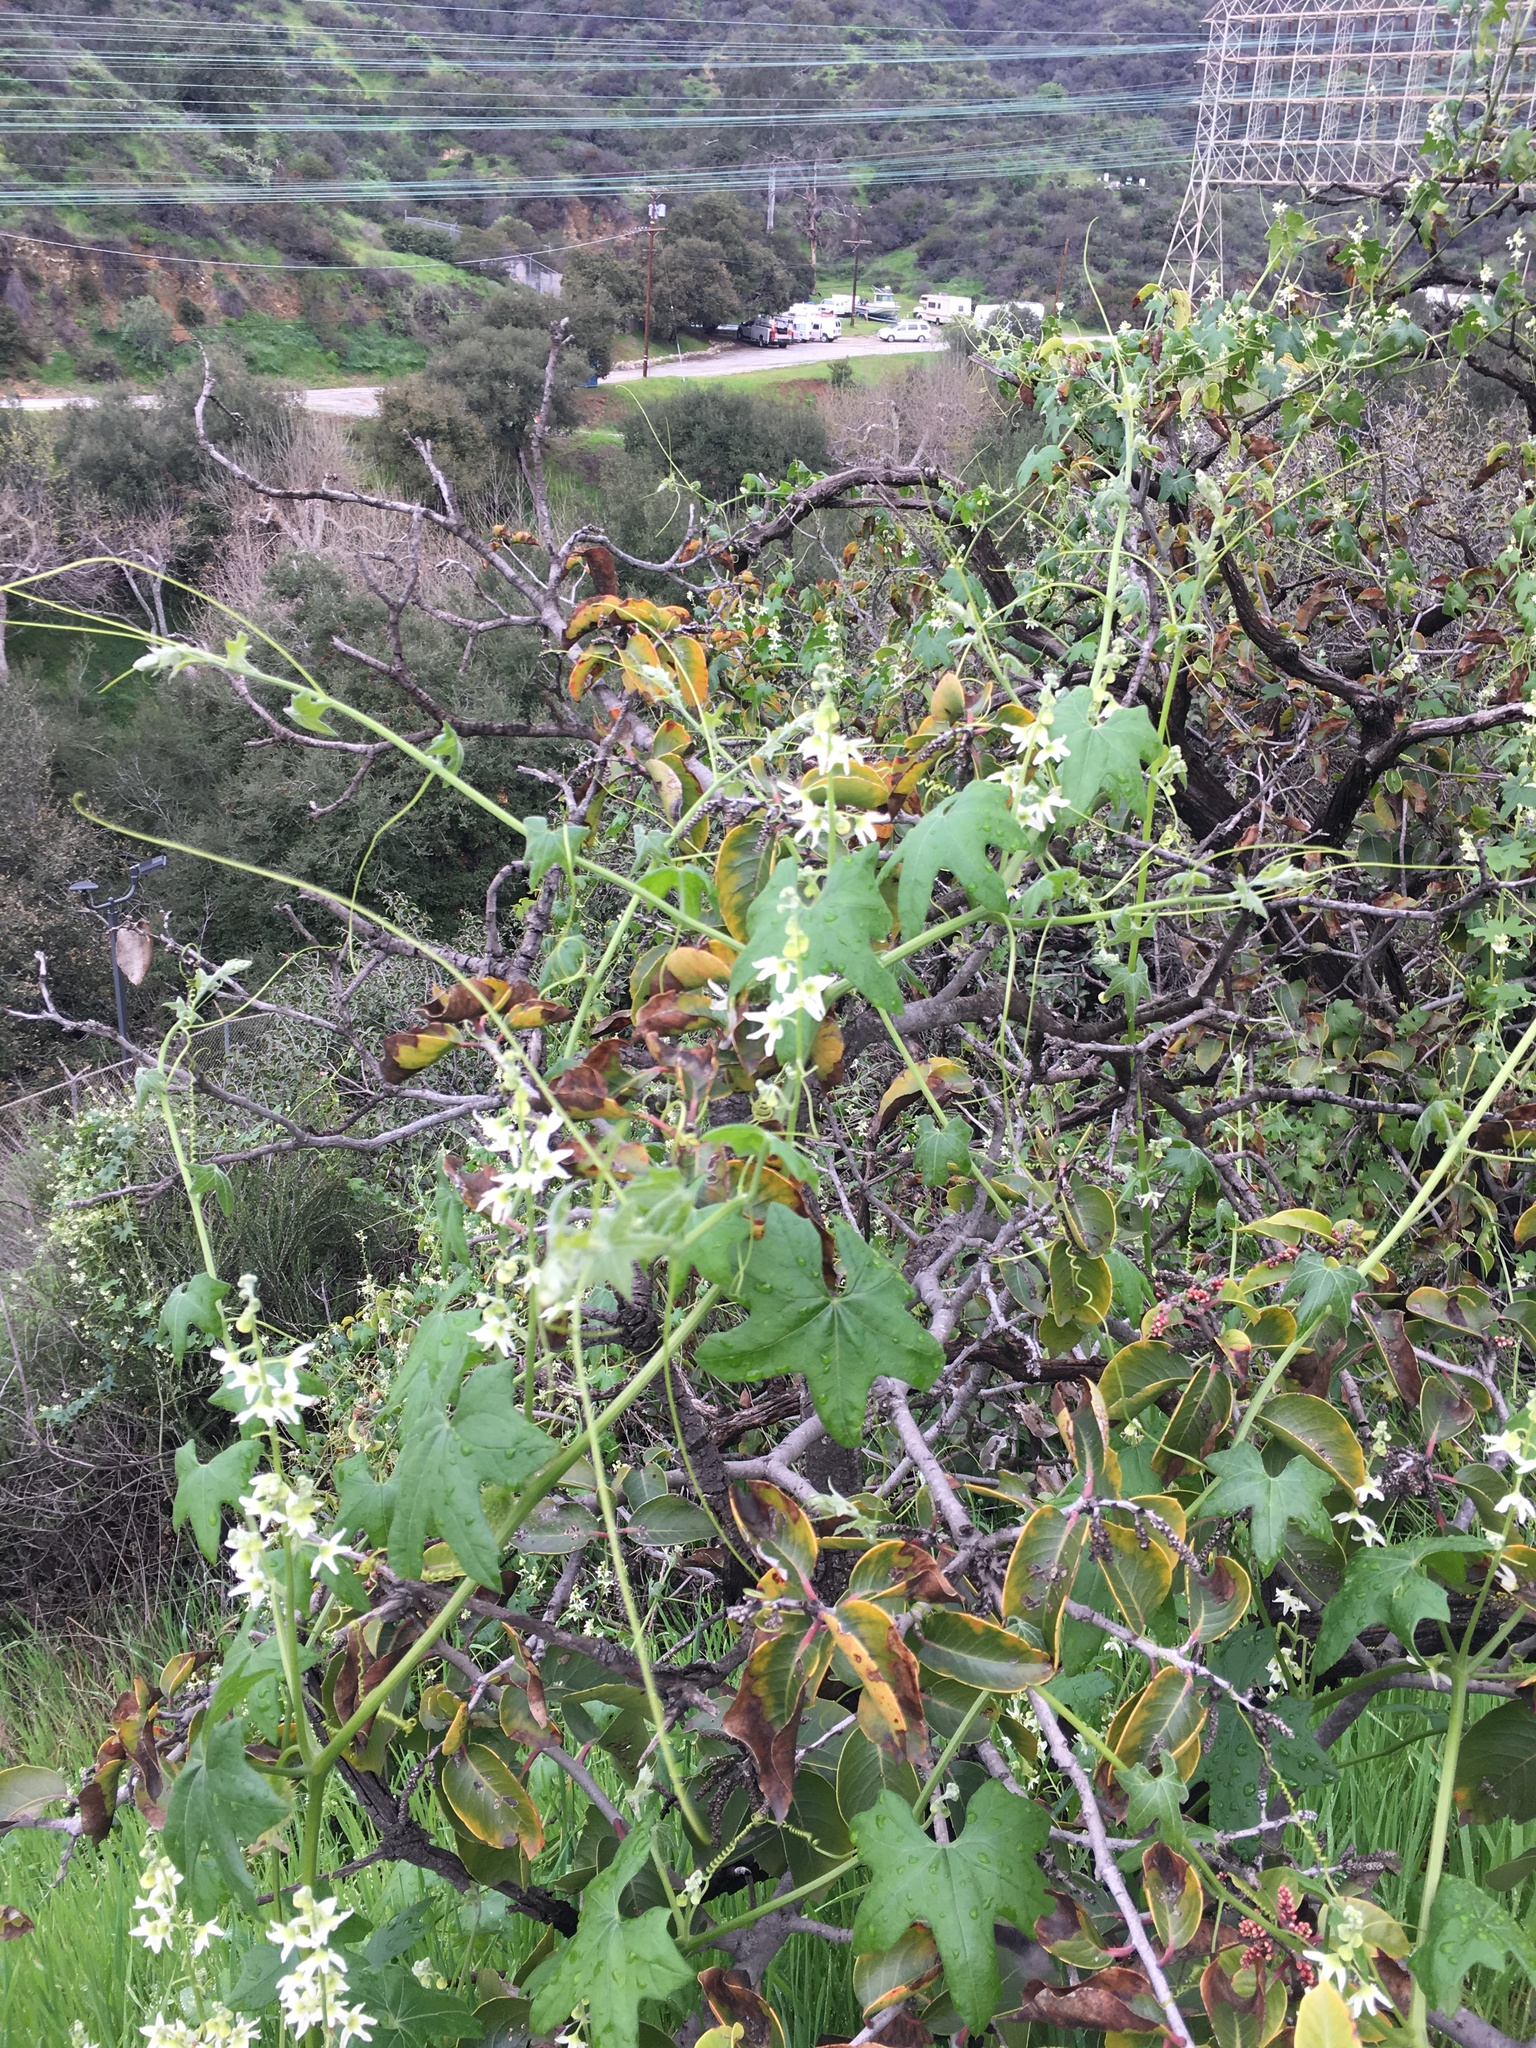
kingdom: Plantae
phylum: Tracheophyta
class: Magnoliopsida
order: Cucurbitales
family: Cucurbitaceae
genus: Marah
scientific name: Marah macrocarpa
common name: Cucamonga manroot
